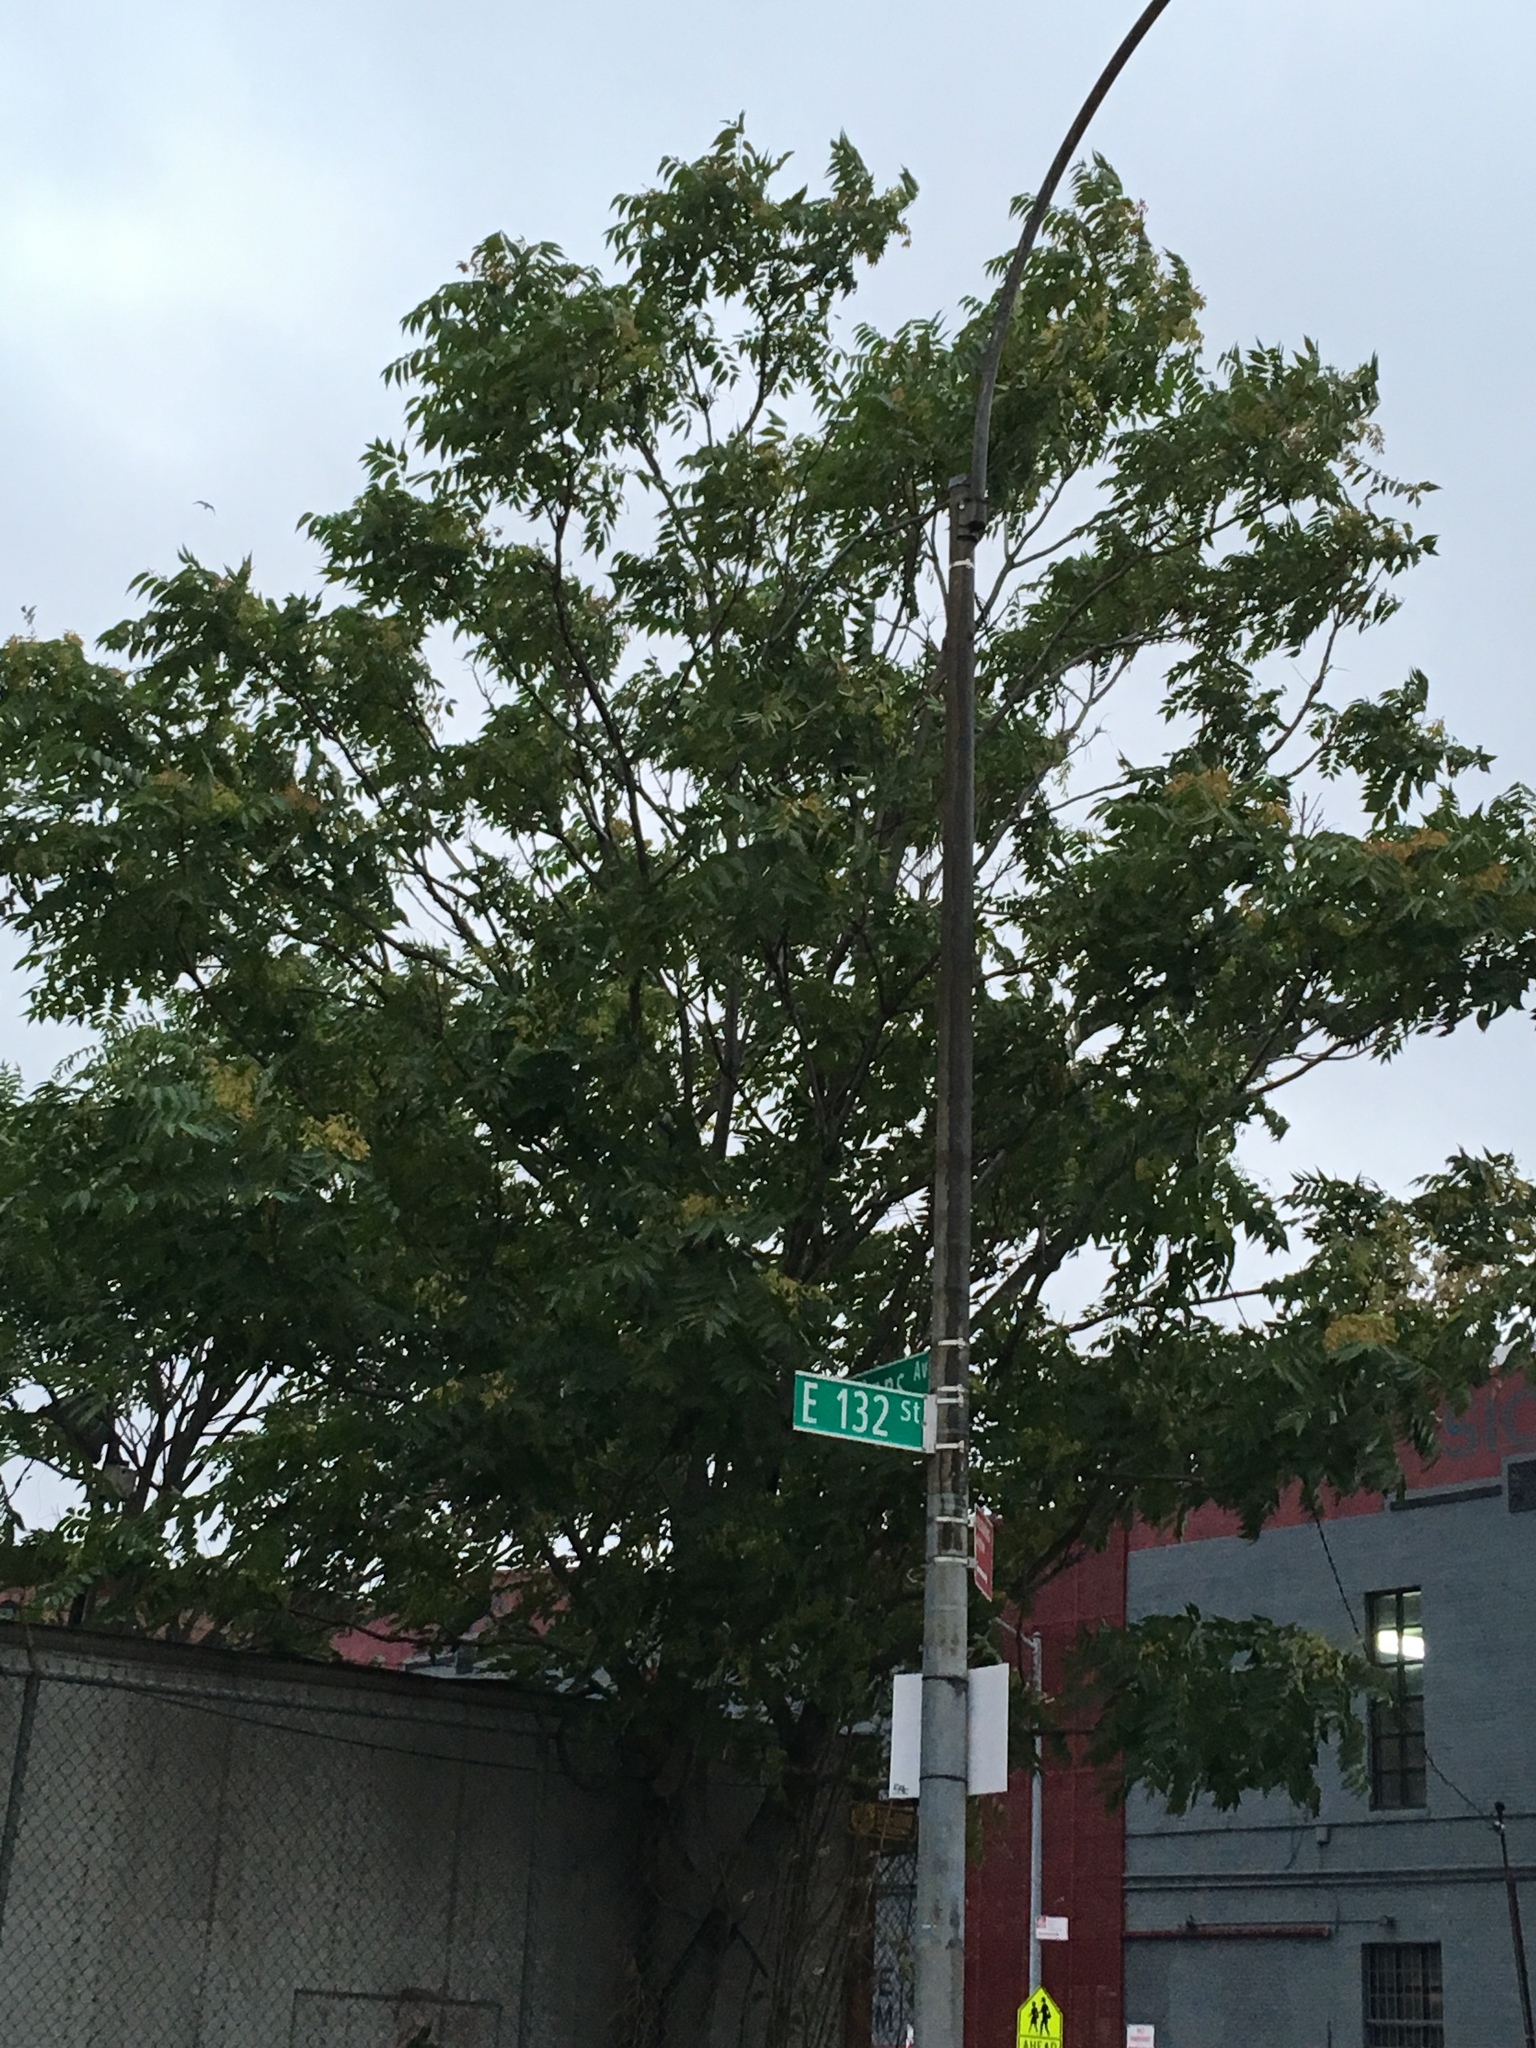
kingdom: Plantae
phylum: Tracheophyta
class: Magnoliopsida
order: Sapindales
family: Simaroubaceae
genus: Ailanthus
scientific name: Ailanthus altissima
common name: Tree-of-heaven
